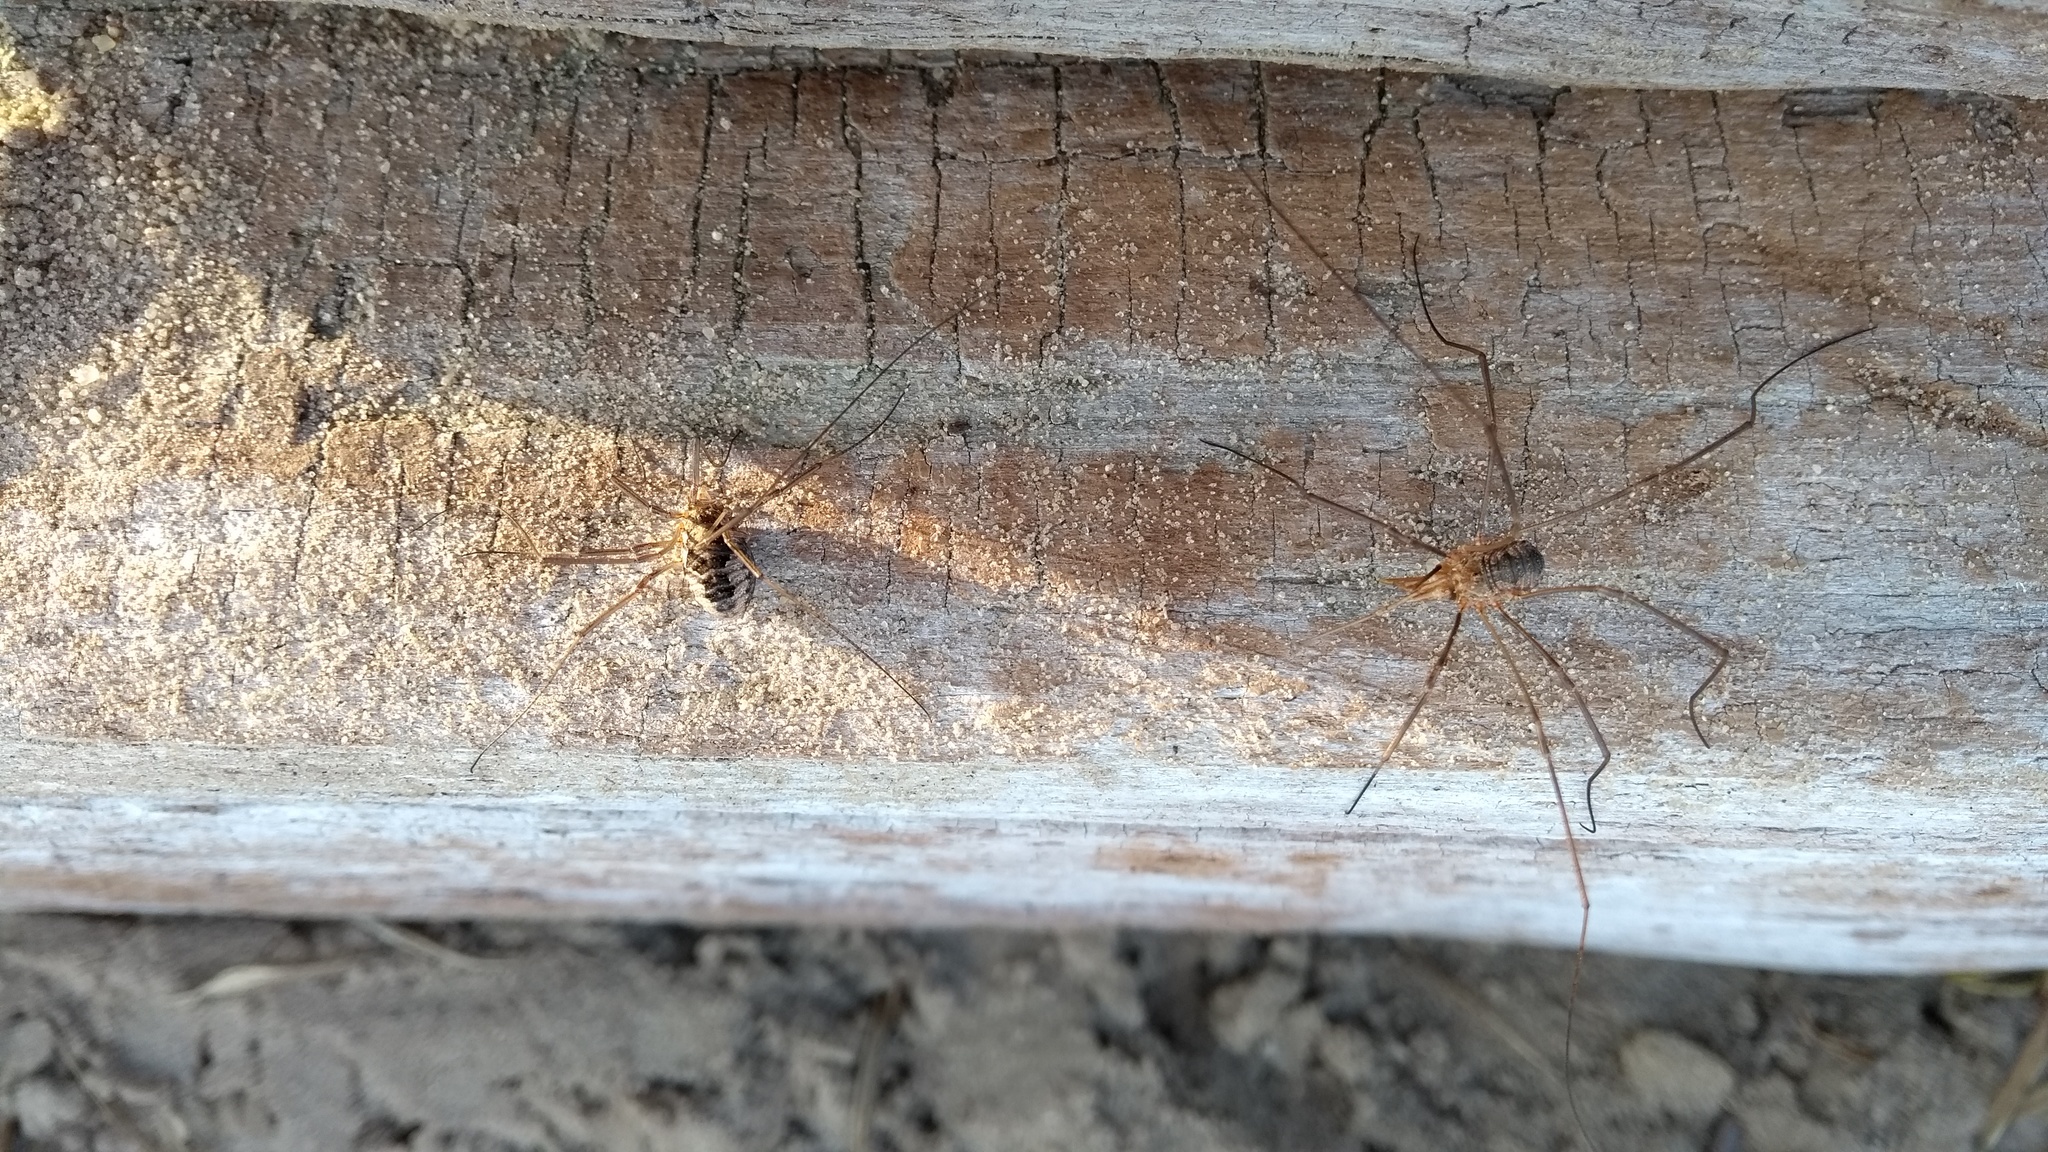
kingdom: Animalia
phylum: Arthropoda
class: Arachnida
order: Opiliones
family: Phalangiidae
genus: Phalangium
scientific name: Phalangium opilio
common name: Daddy longleg
